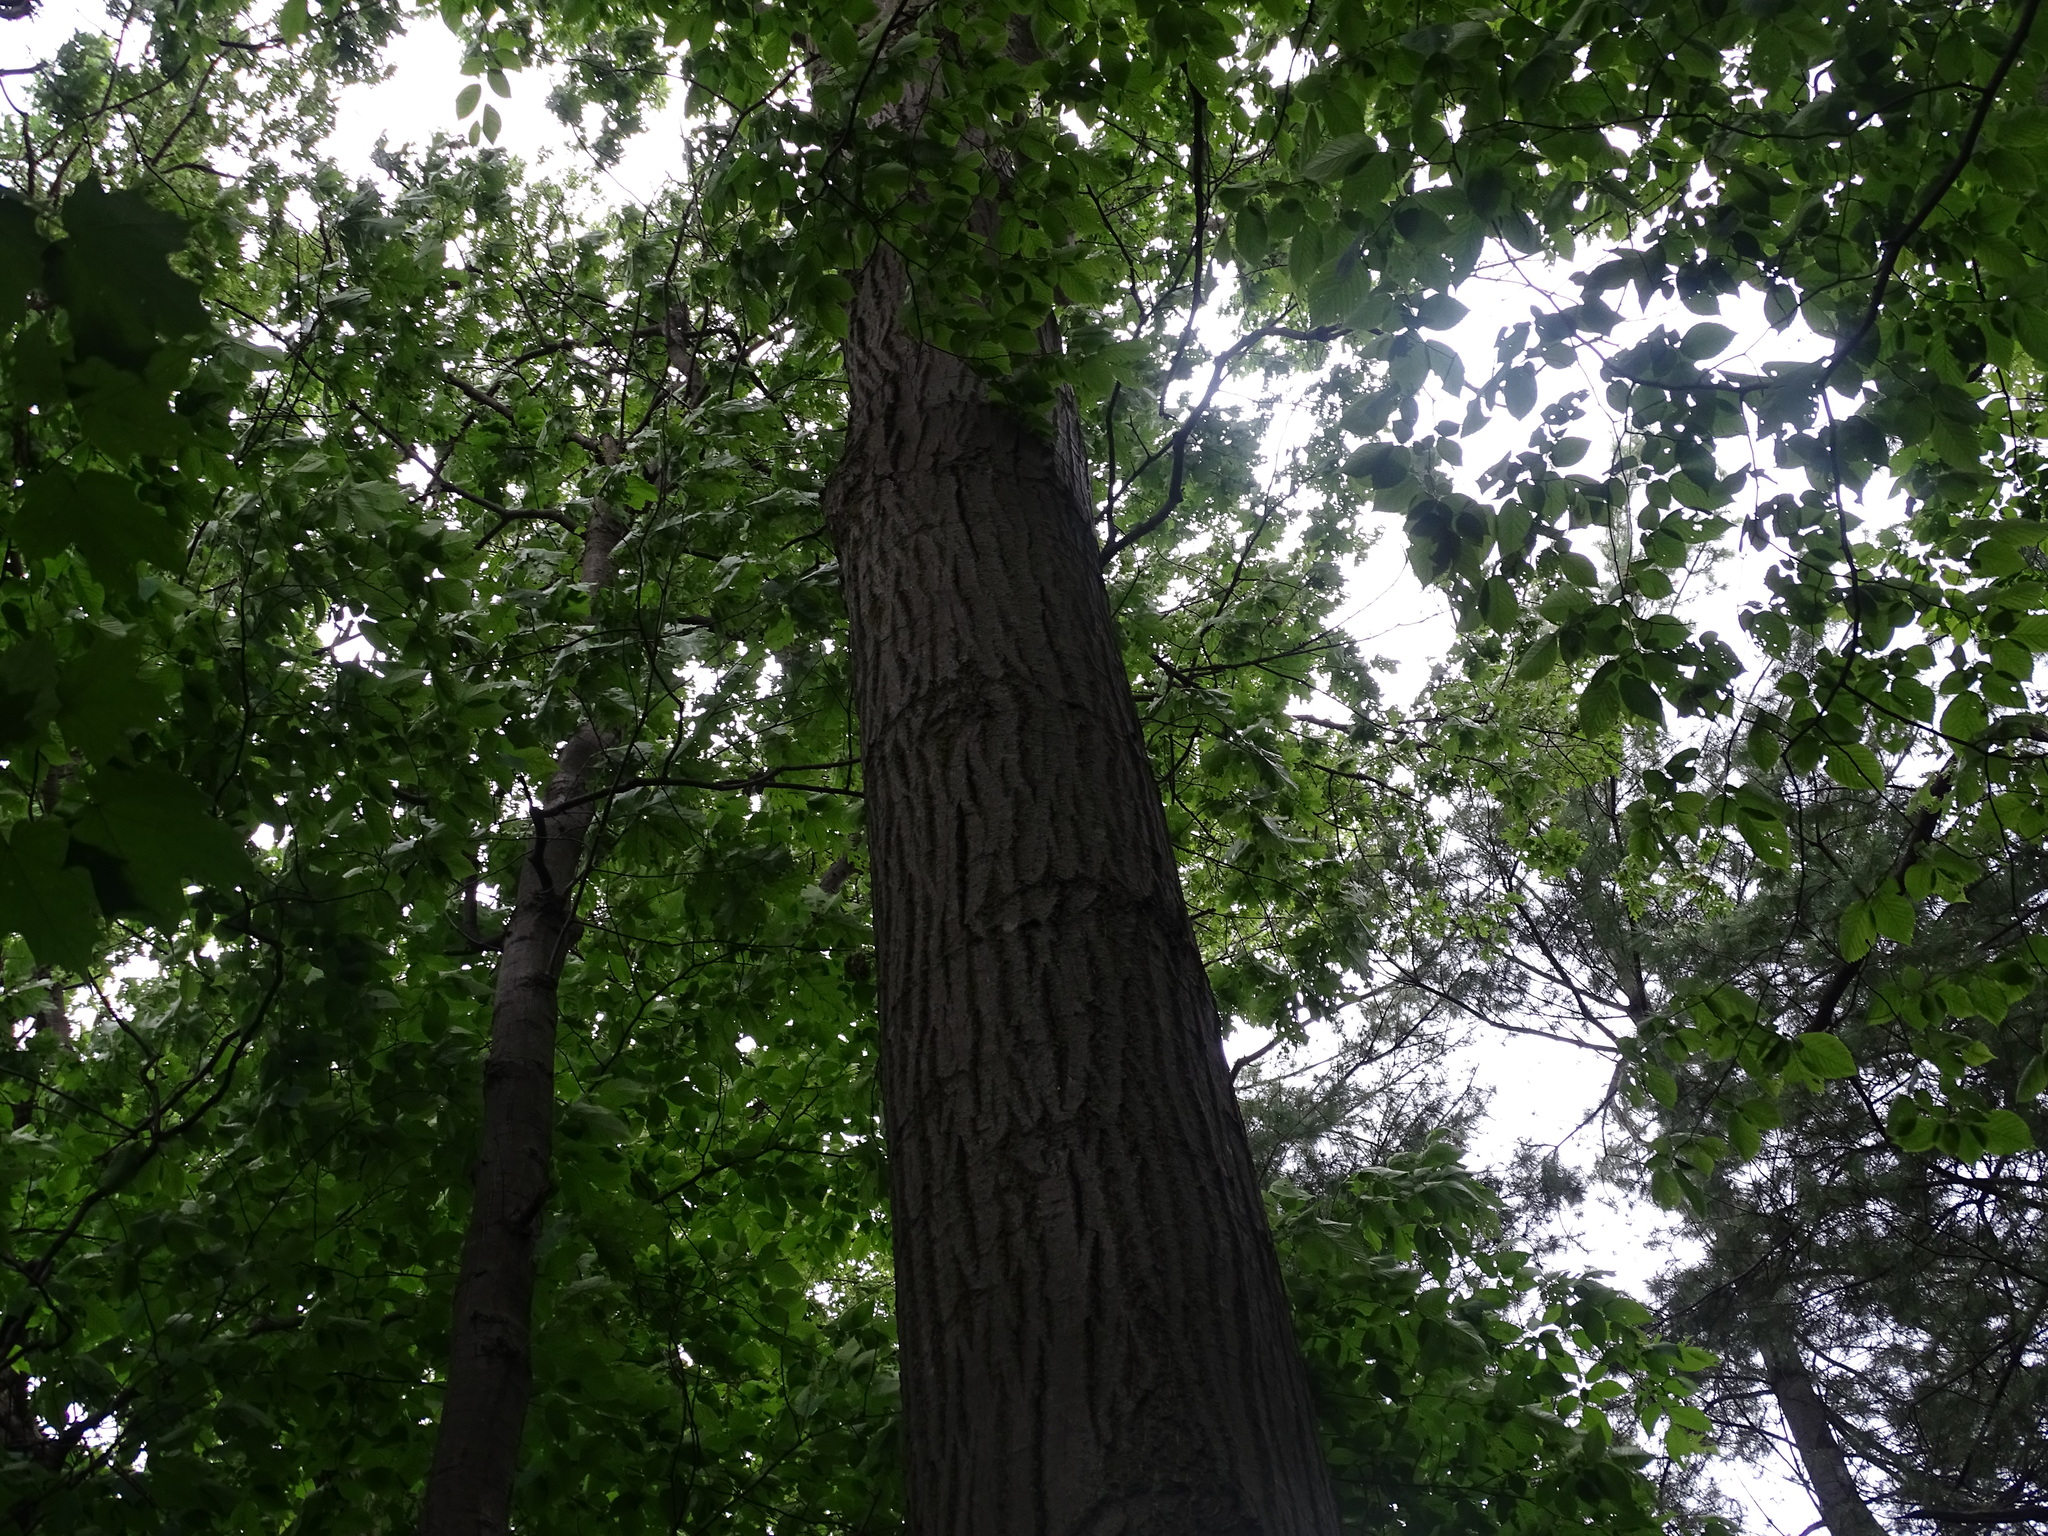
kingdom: Plantae
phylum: Tracheophyta
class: Magnoliopsida
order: Fagales
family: Fagaceae
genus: Quercus
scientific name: Quercus rubra
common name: Red oak
